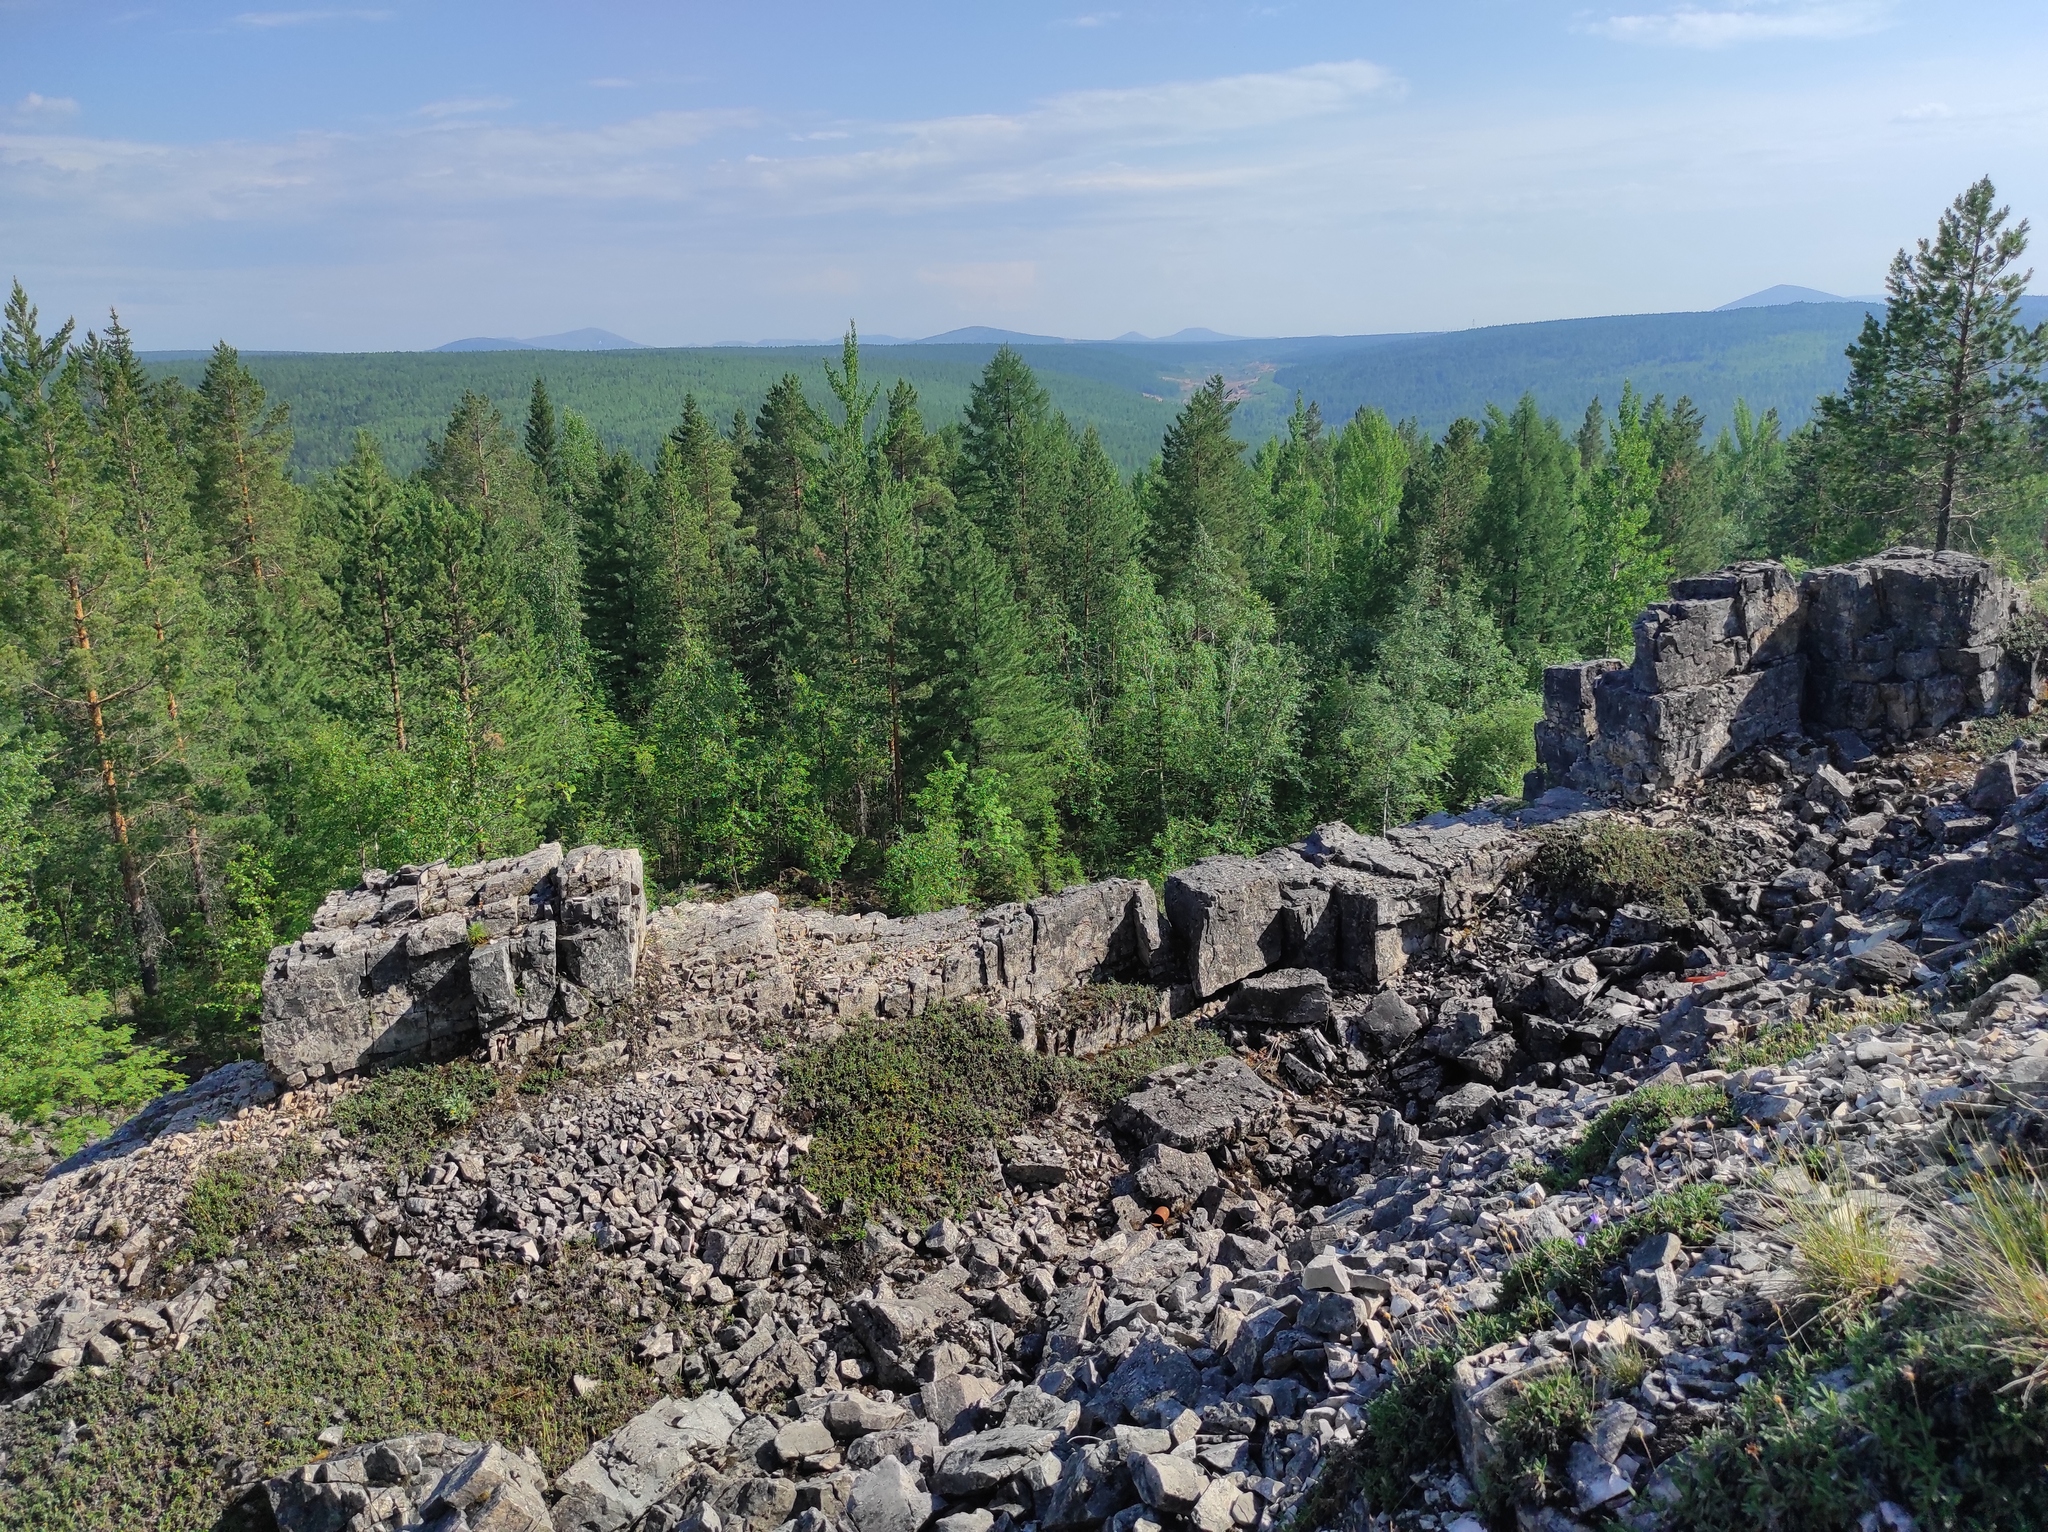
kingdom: Plantae
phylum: Tracheophyta
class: Pinopsida
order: Pinales
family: Pinaceae
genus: Pinus
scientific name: Pinus sylvestris
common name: Scots pine
